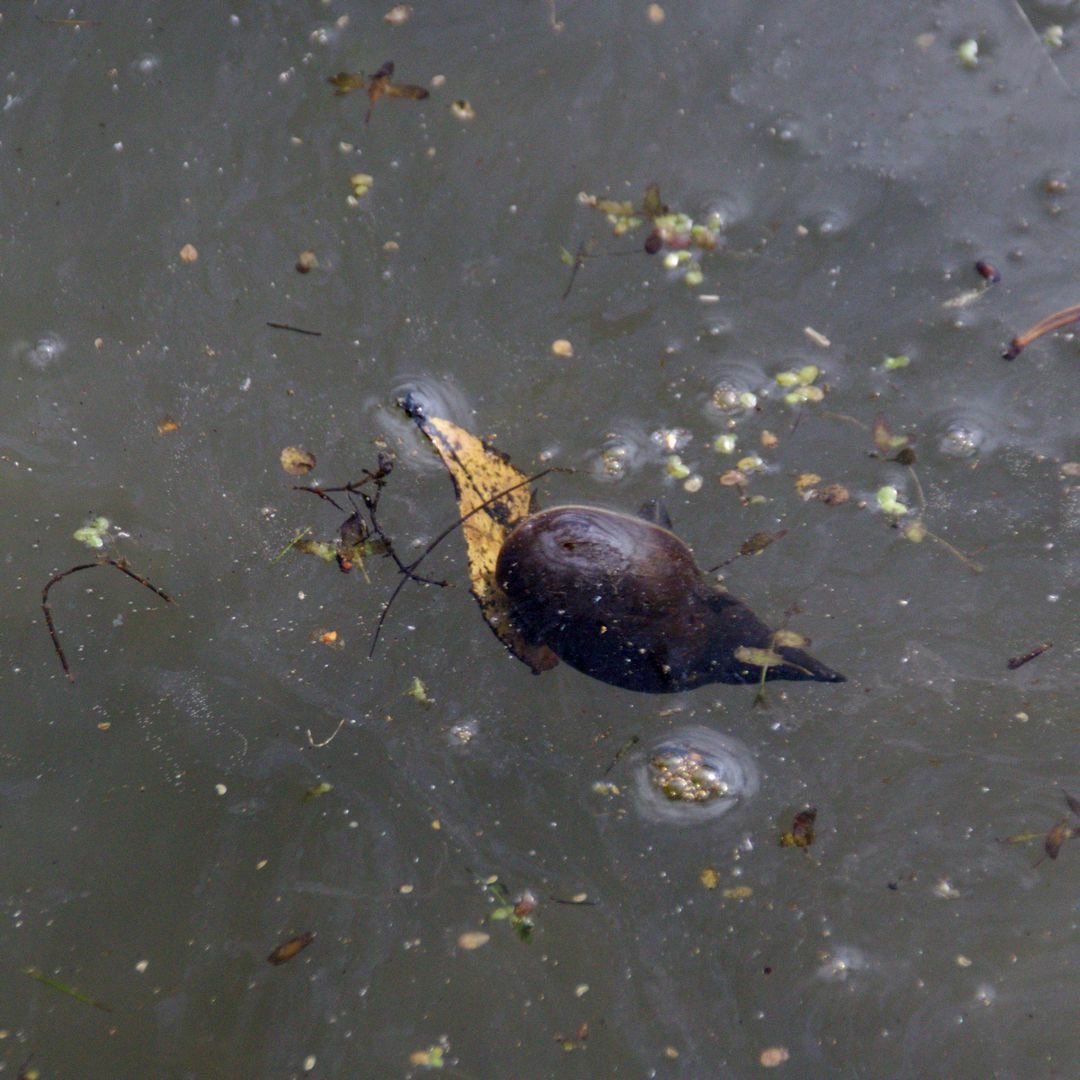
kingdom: Animalia
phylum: Mollusca
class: Gastropoda
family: Lymnaeidae
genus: Lymnaea
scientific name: Lymnaea stagnalis
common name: Great pond snail
